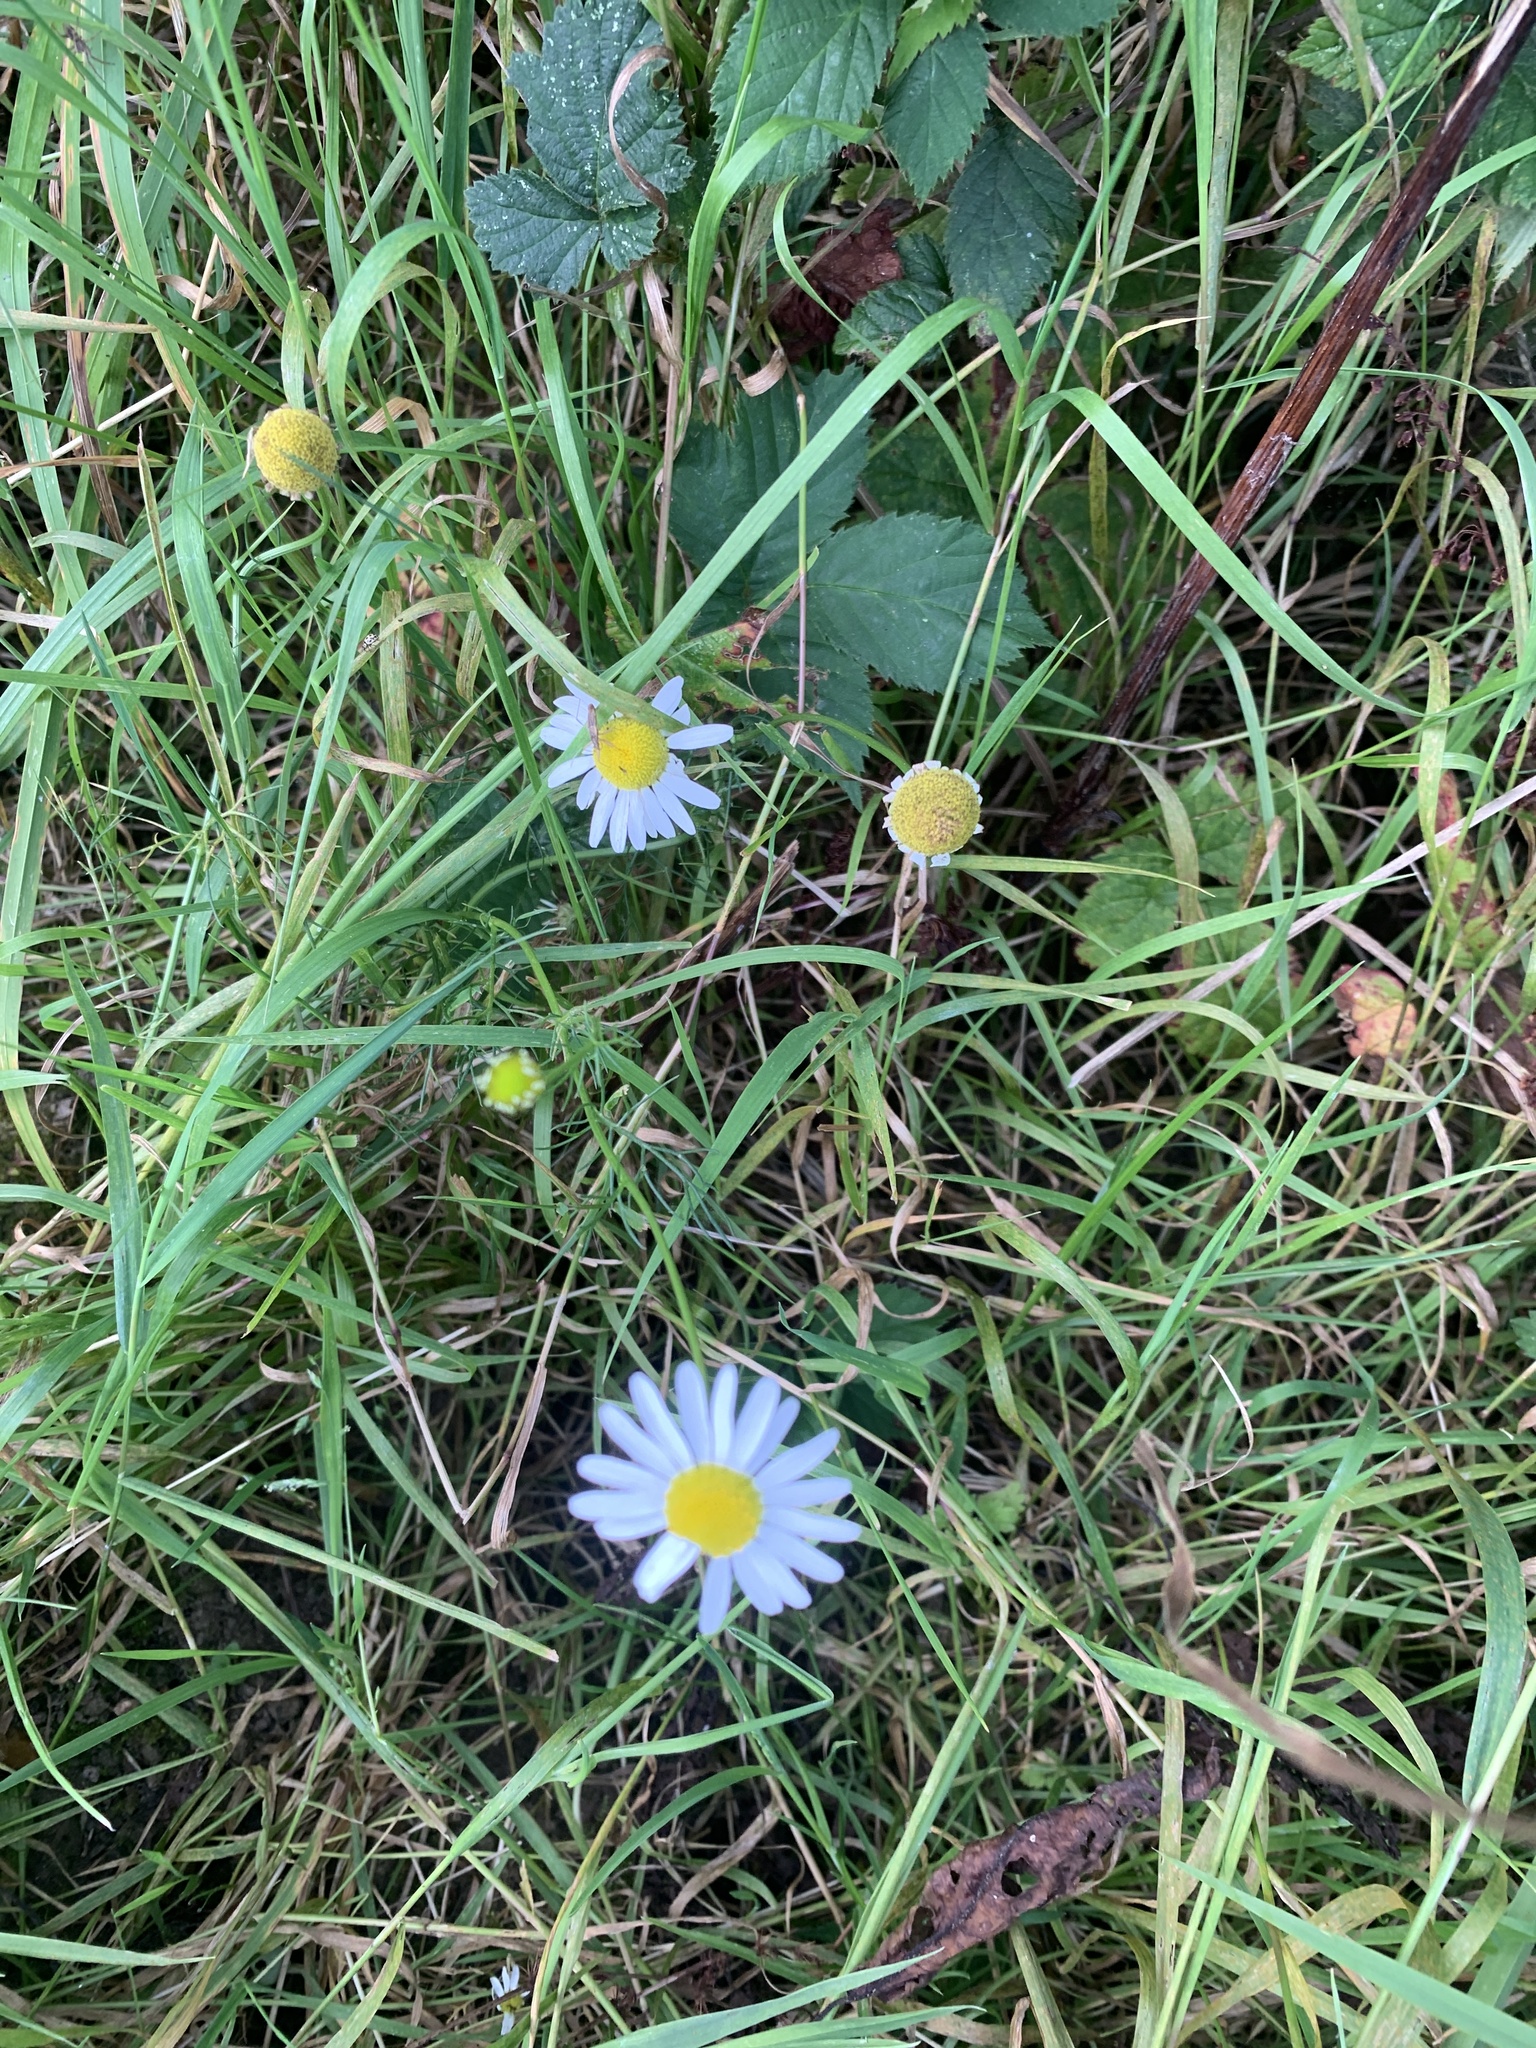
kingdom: Plantae
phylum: Tracheophyta
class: Magnoliopsida
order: Asterales
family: Asteraceae
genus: Leucanthemum
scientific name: Leucanthemum vulgare
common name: Oxeye daisy
